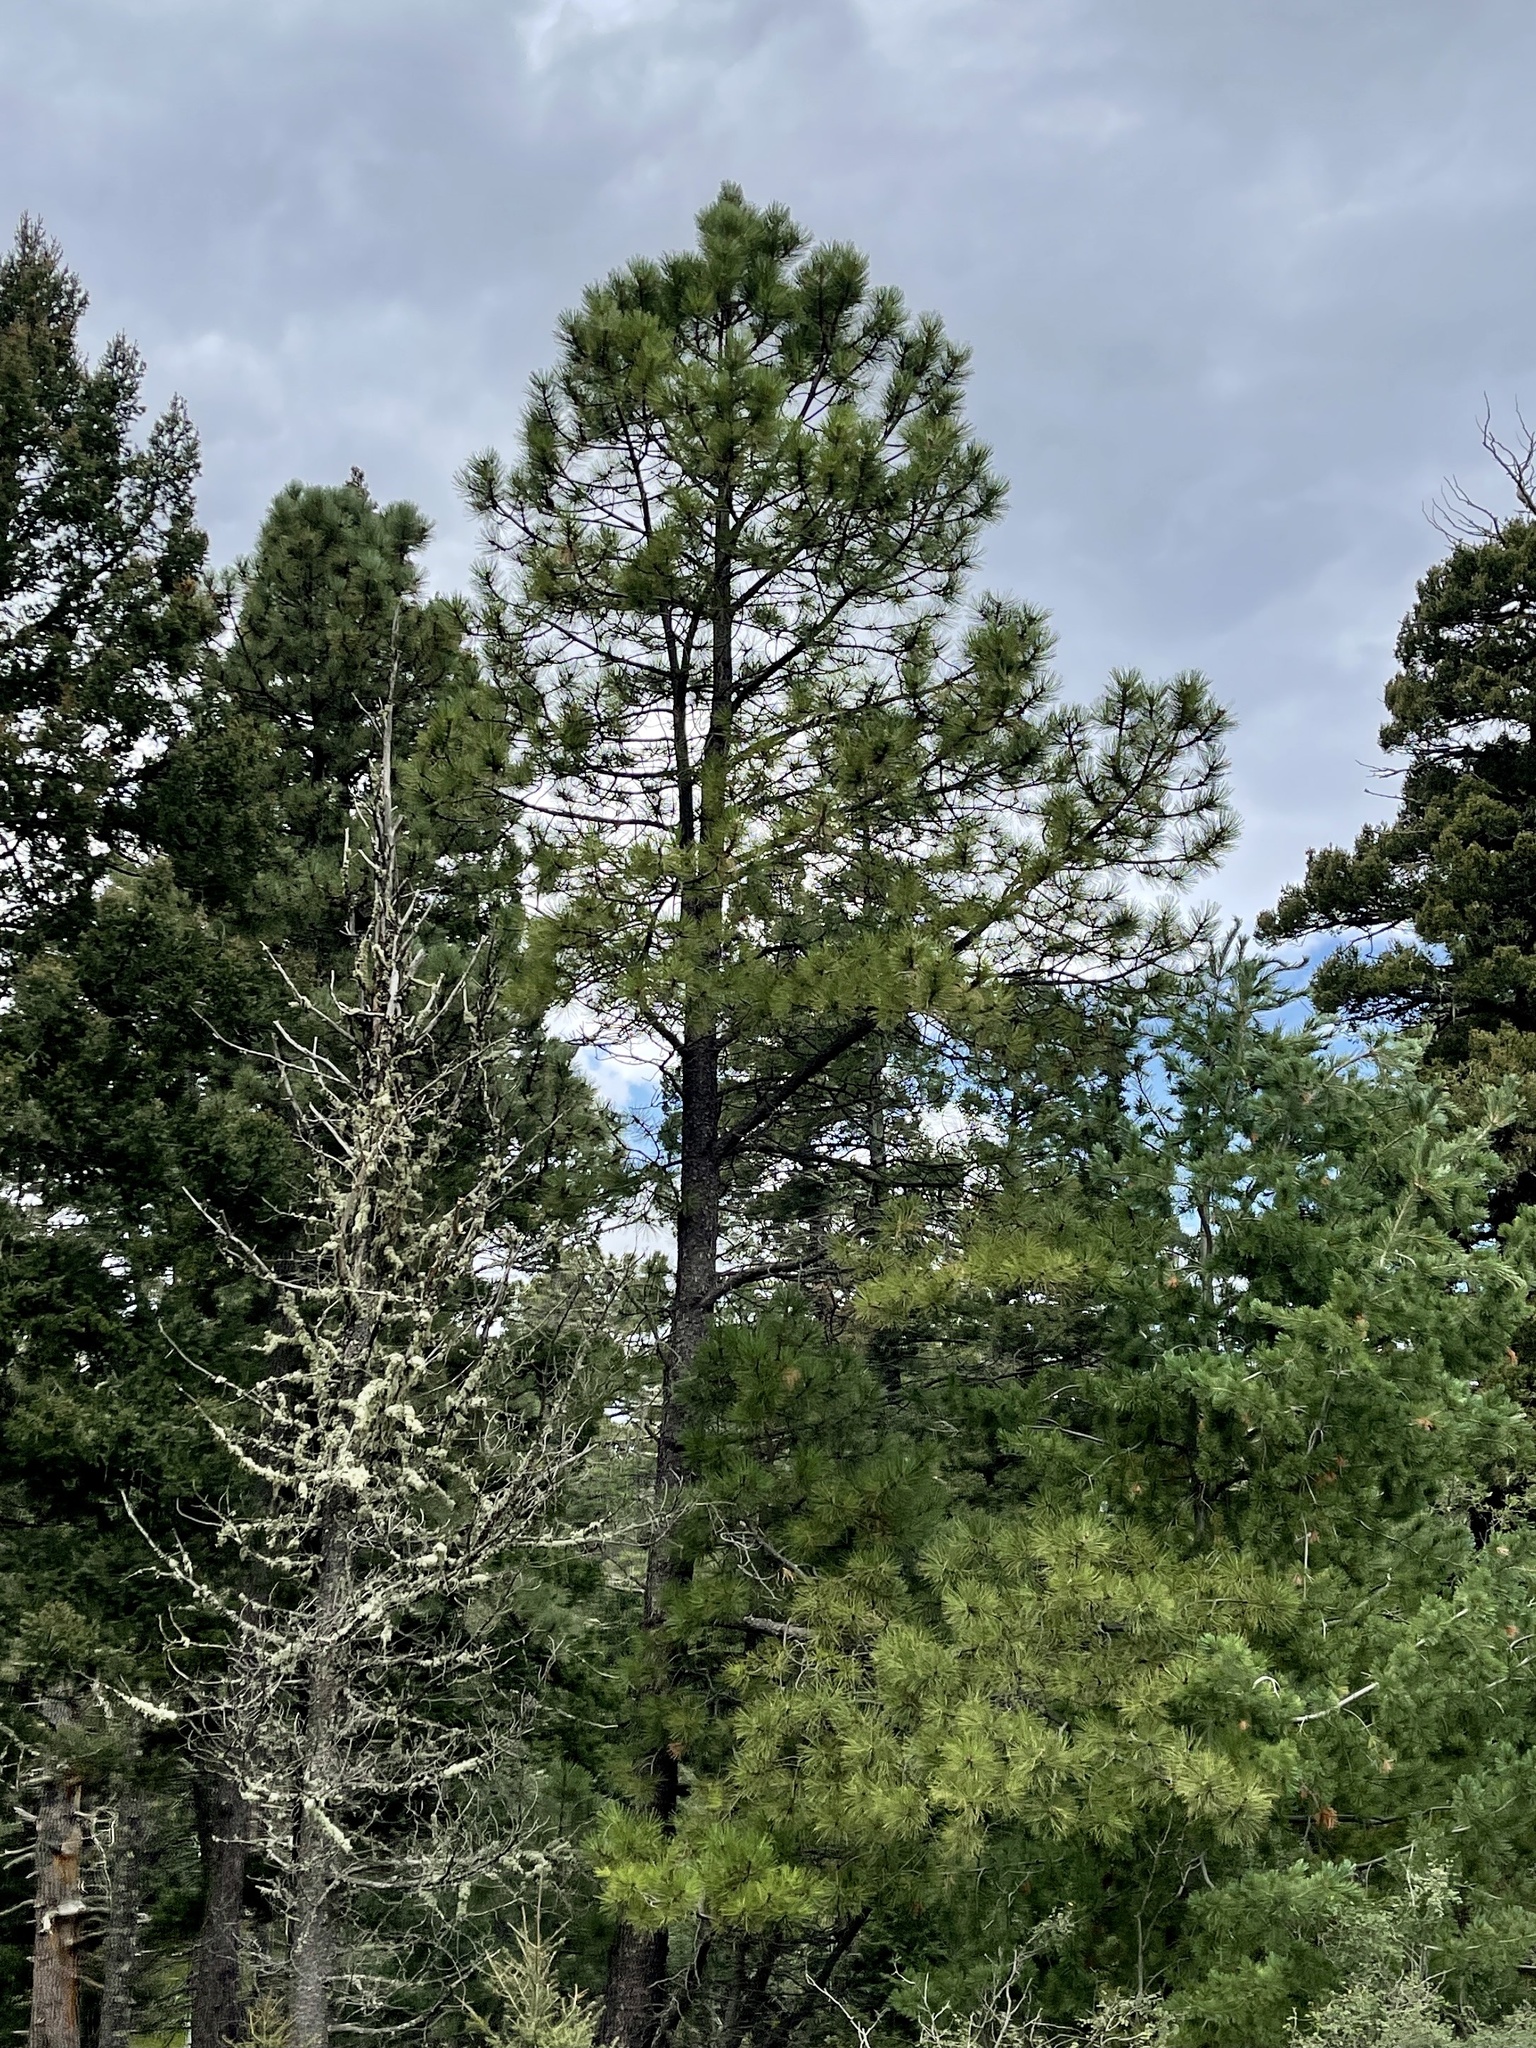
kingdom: Plantae
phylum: Tracheophyta
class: Pinopsida
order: Pinales
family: Pinaceae
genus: Pinus
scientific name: Pinus ponderosa
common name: Western yellow-pine
